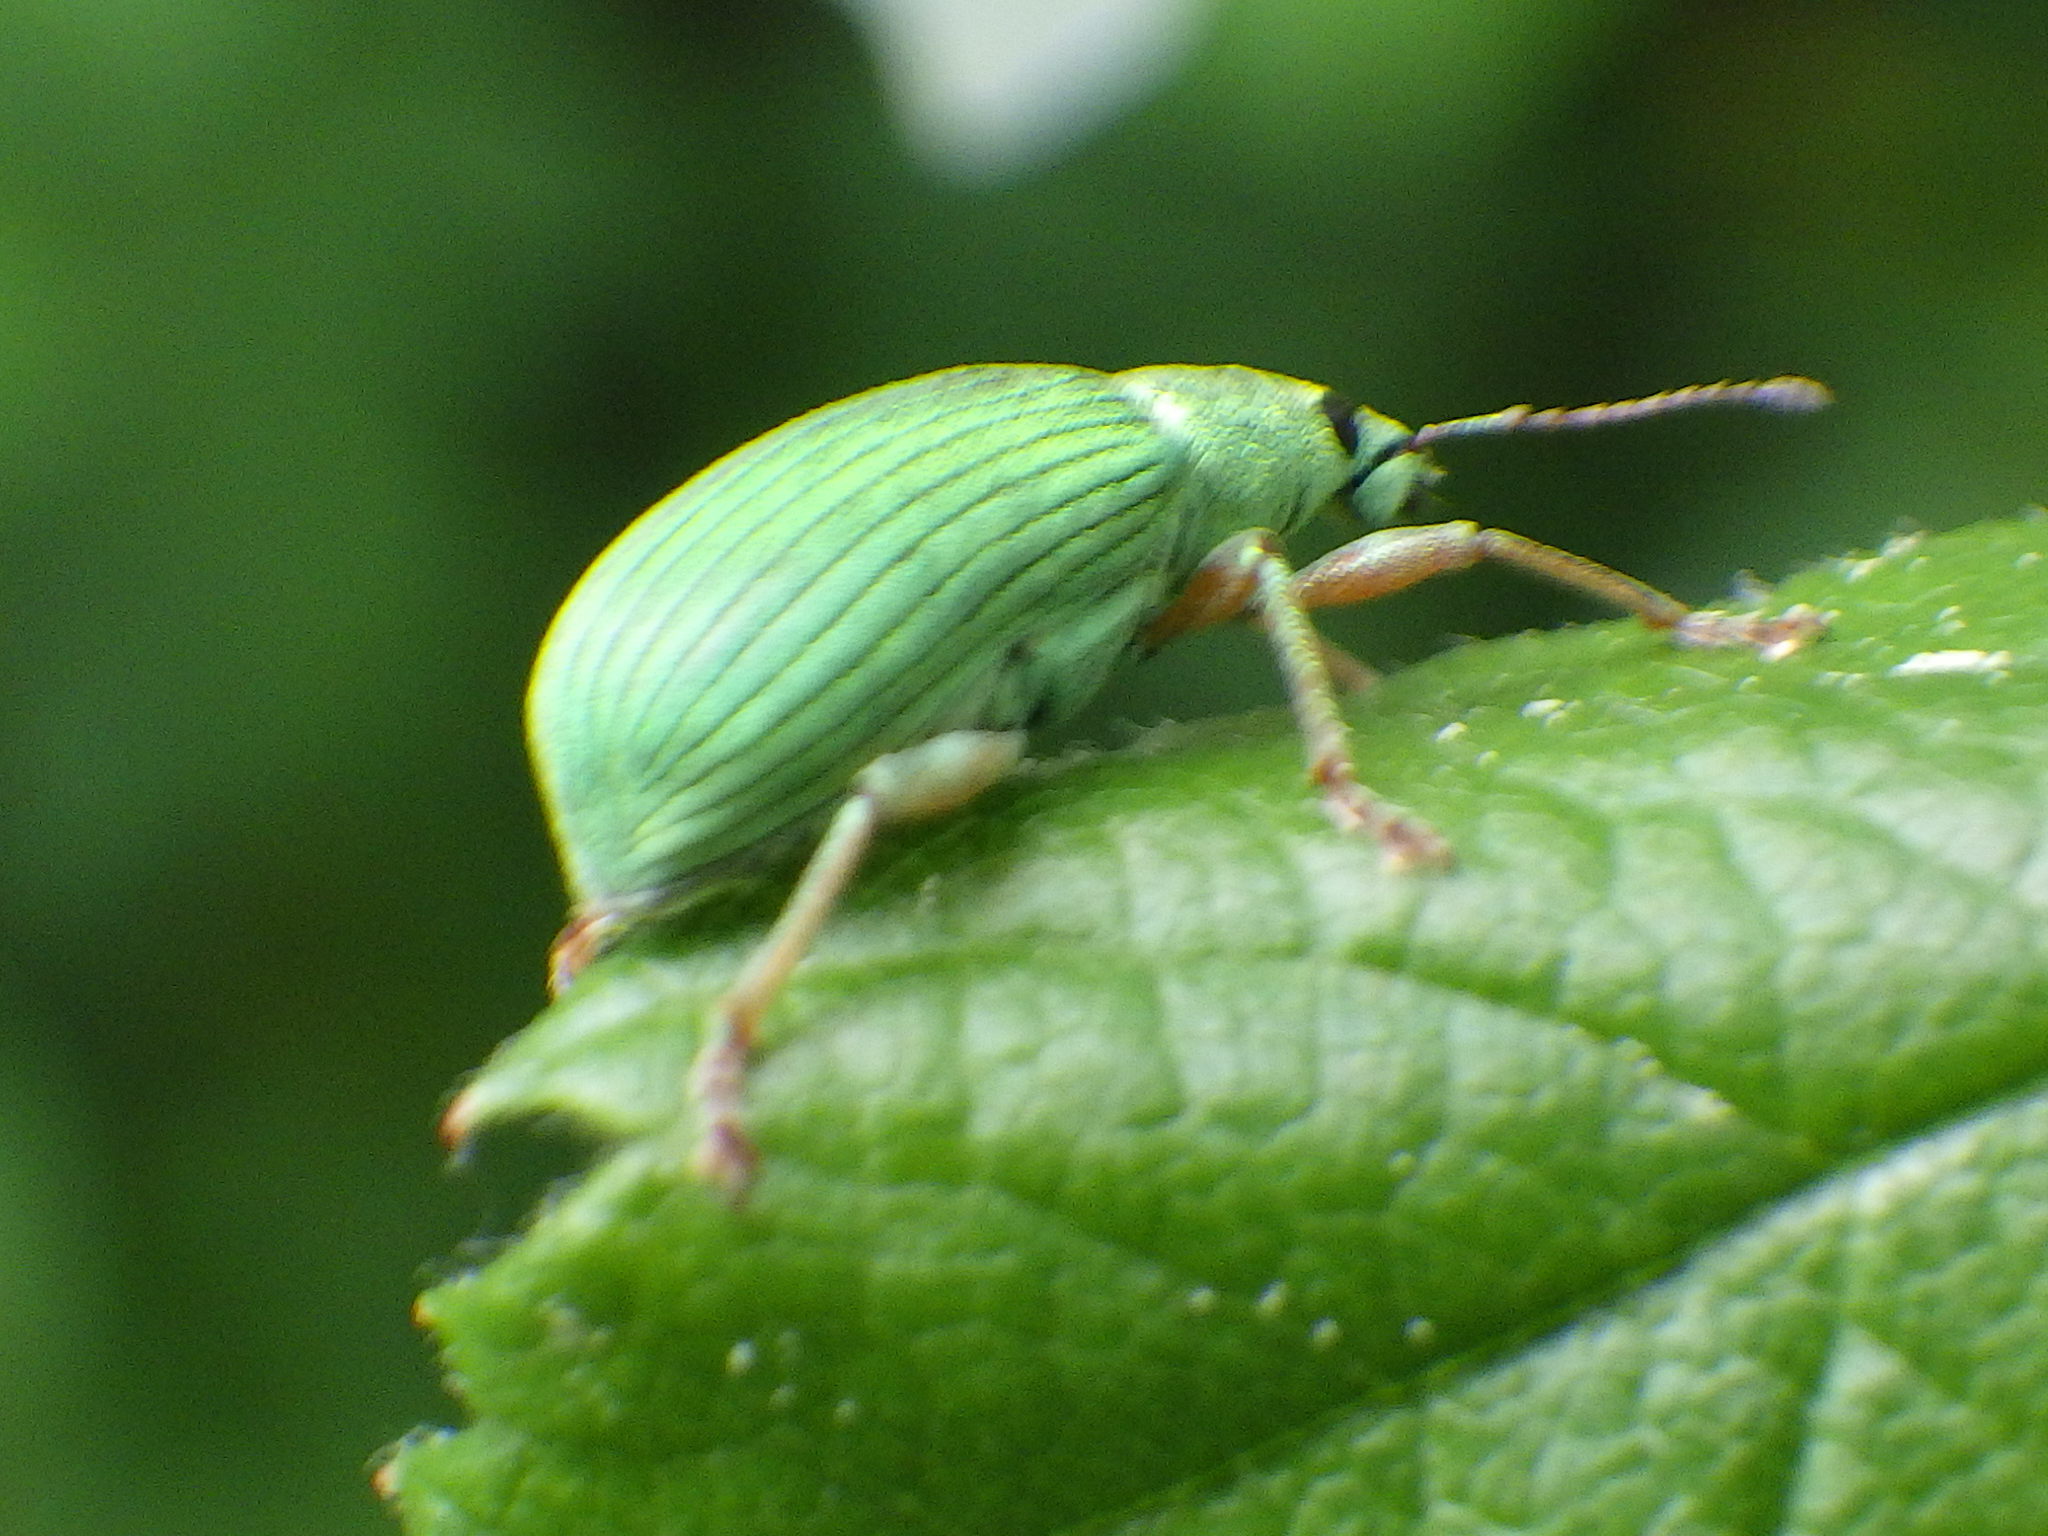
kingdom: Animalia
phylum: Arthropoda
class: Insecta
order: Coleoptera
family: Curculionidae
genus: Polydrusus
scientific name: Polydrusus formosus
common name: Weevil
